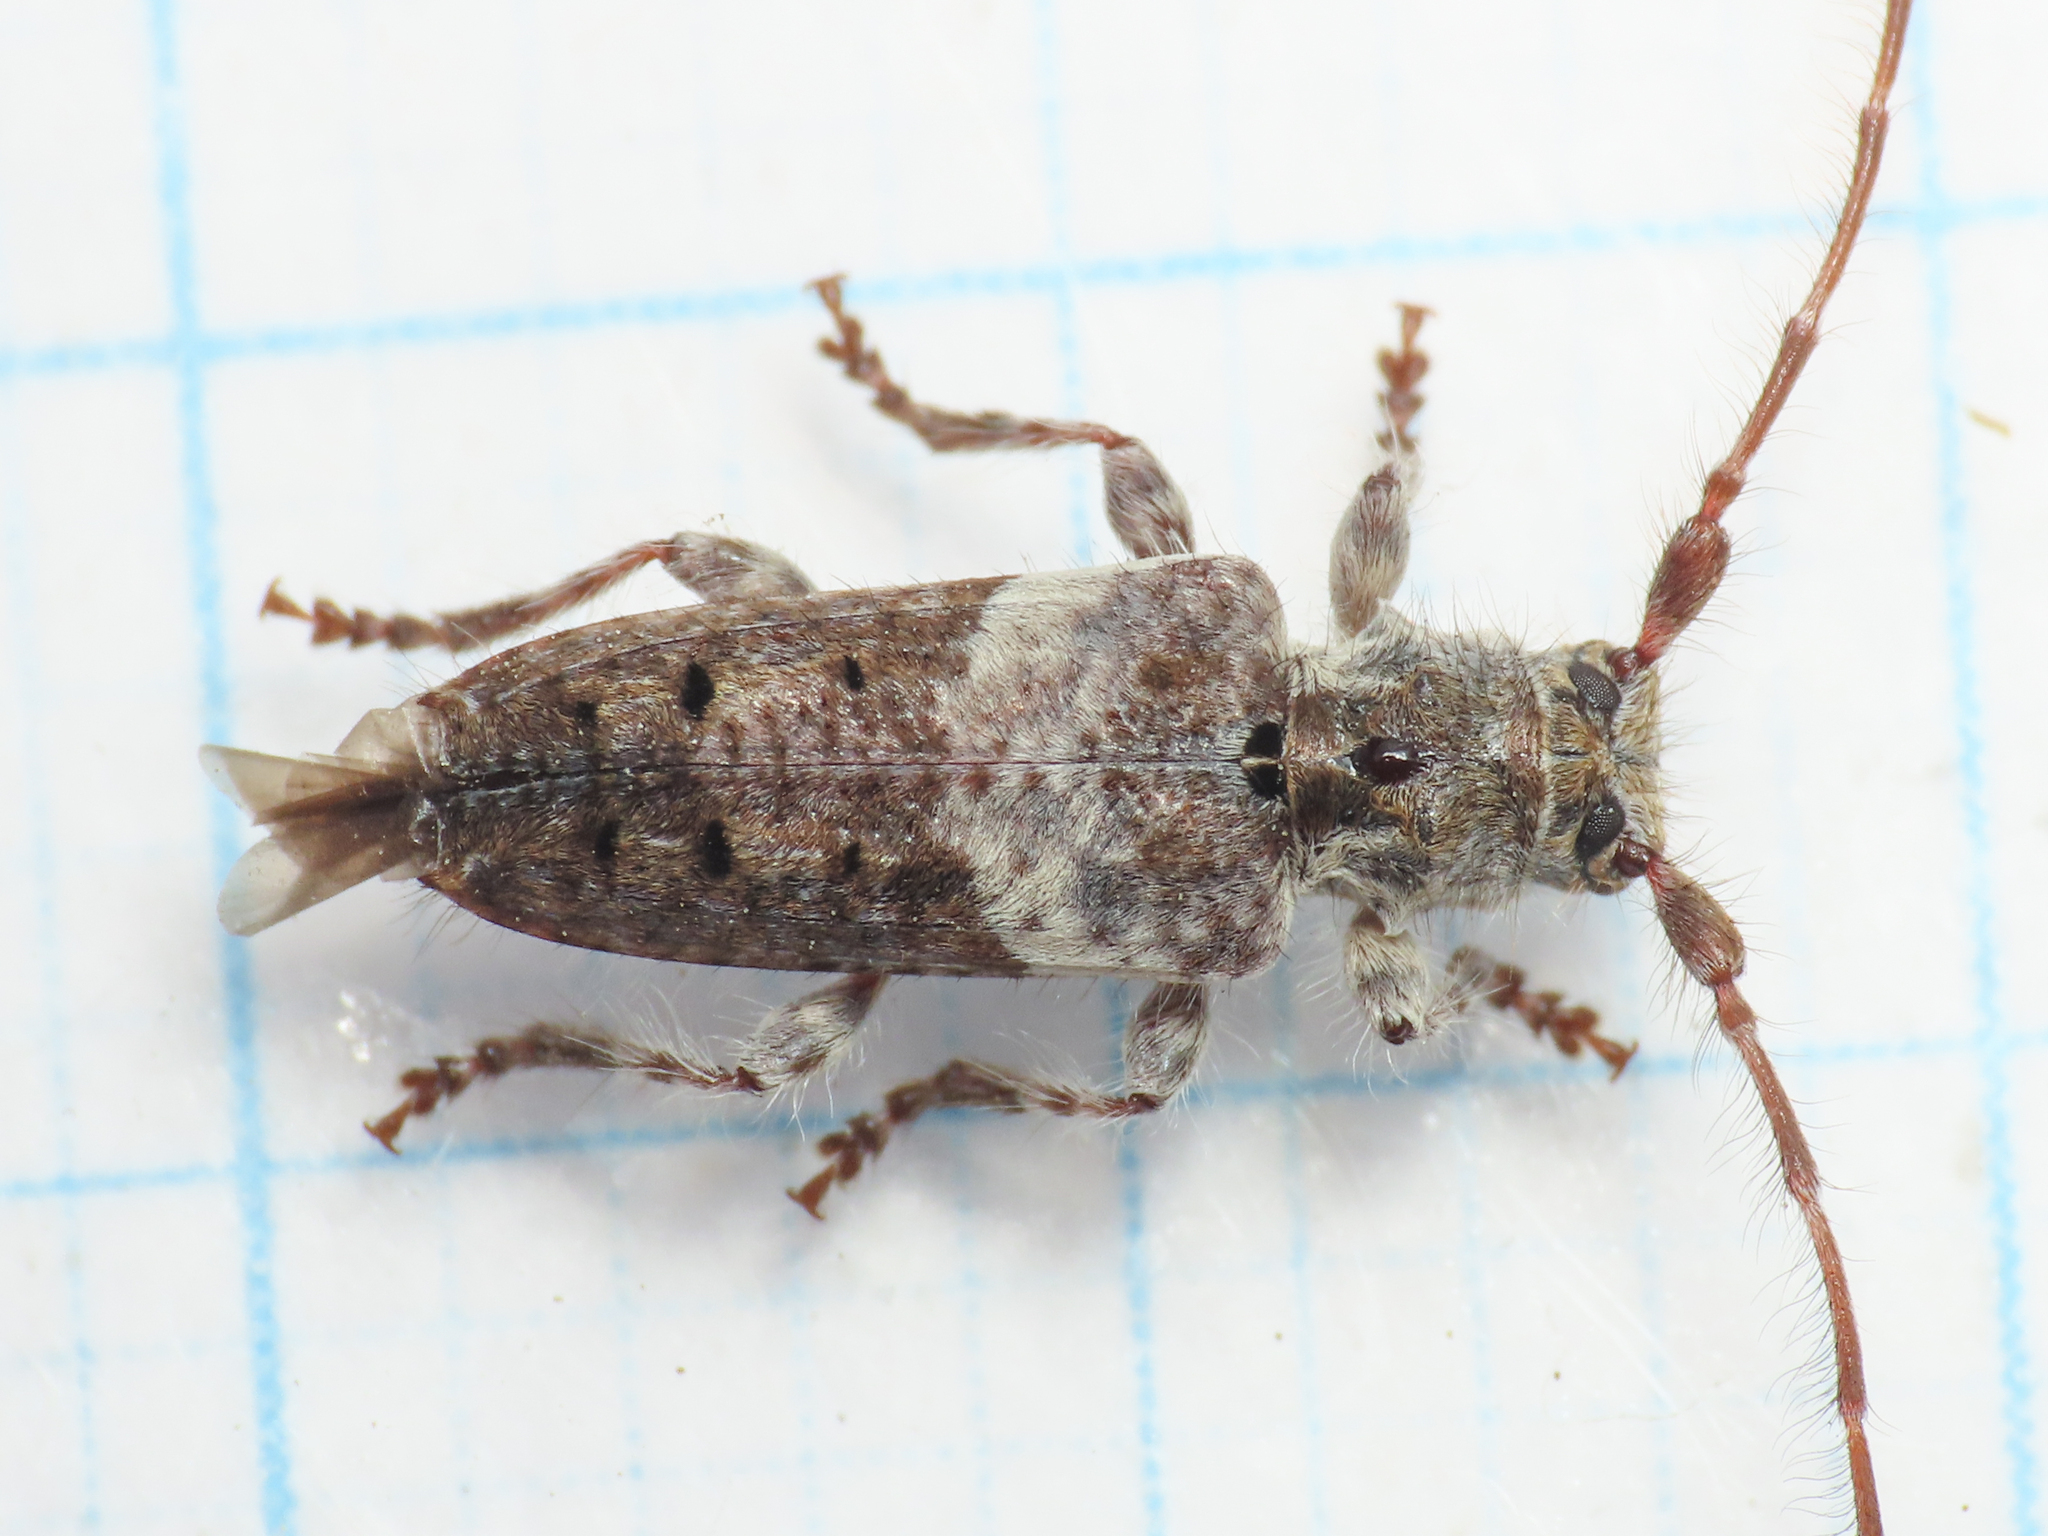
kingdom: Animalia
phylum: Arthropoda
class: Insecta
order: Coleoptera
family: Cerambycidae
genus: Pogonocherus
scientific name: Pogonocherus perroudi
